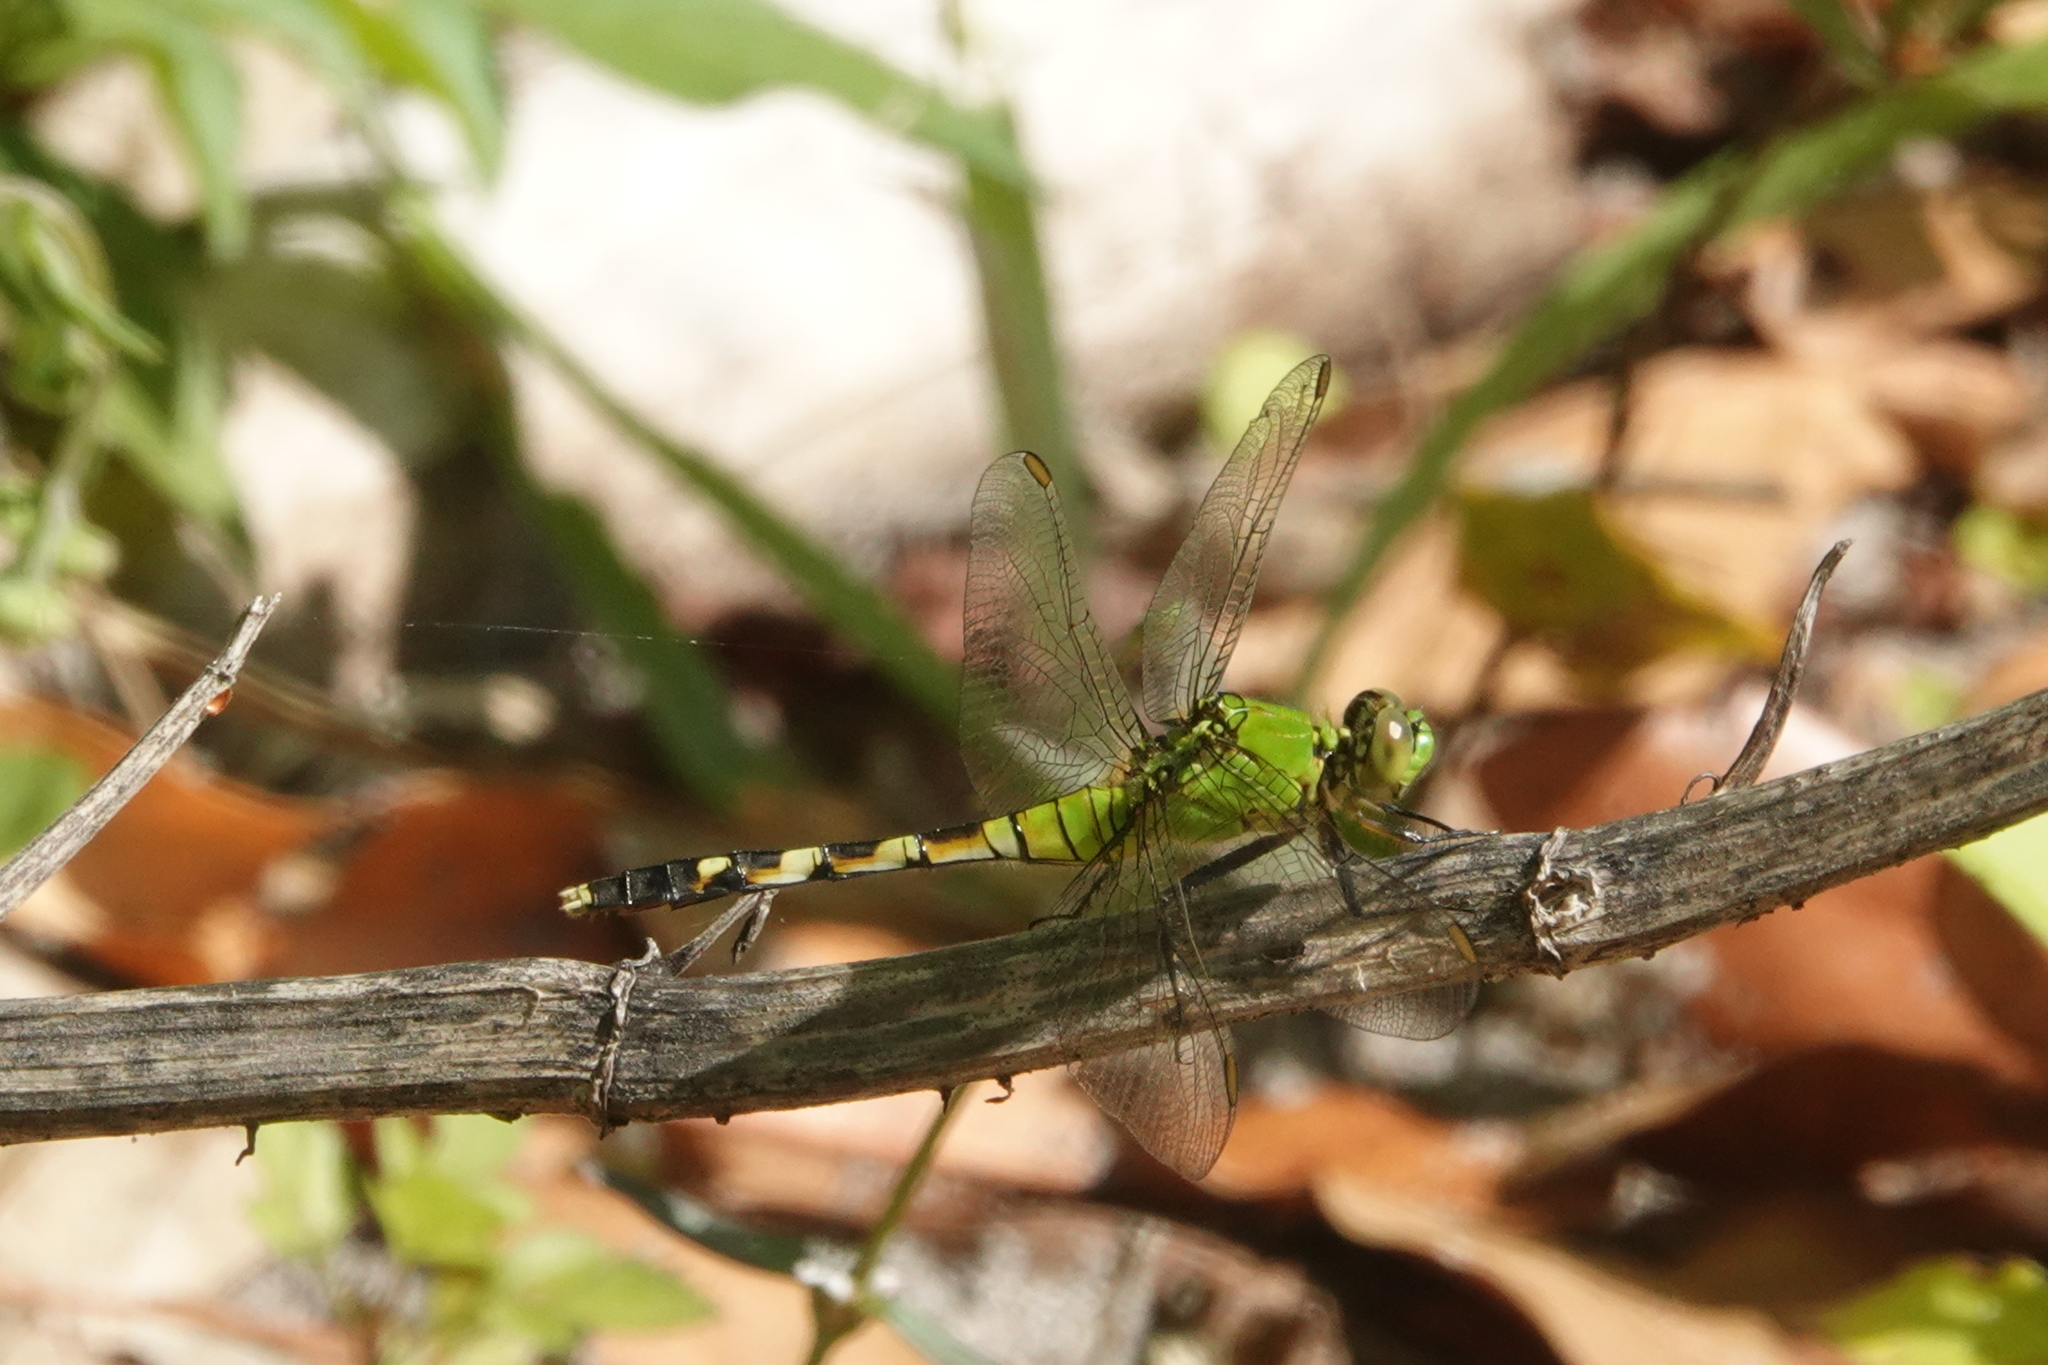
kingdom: Animalia
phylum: Arthropoda
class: Insecta
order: Odonata
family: Libellulidae
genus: Erythemis
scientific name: Erythemis simplicicollis
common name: Eastern pondhawk
